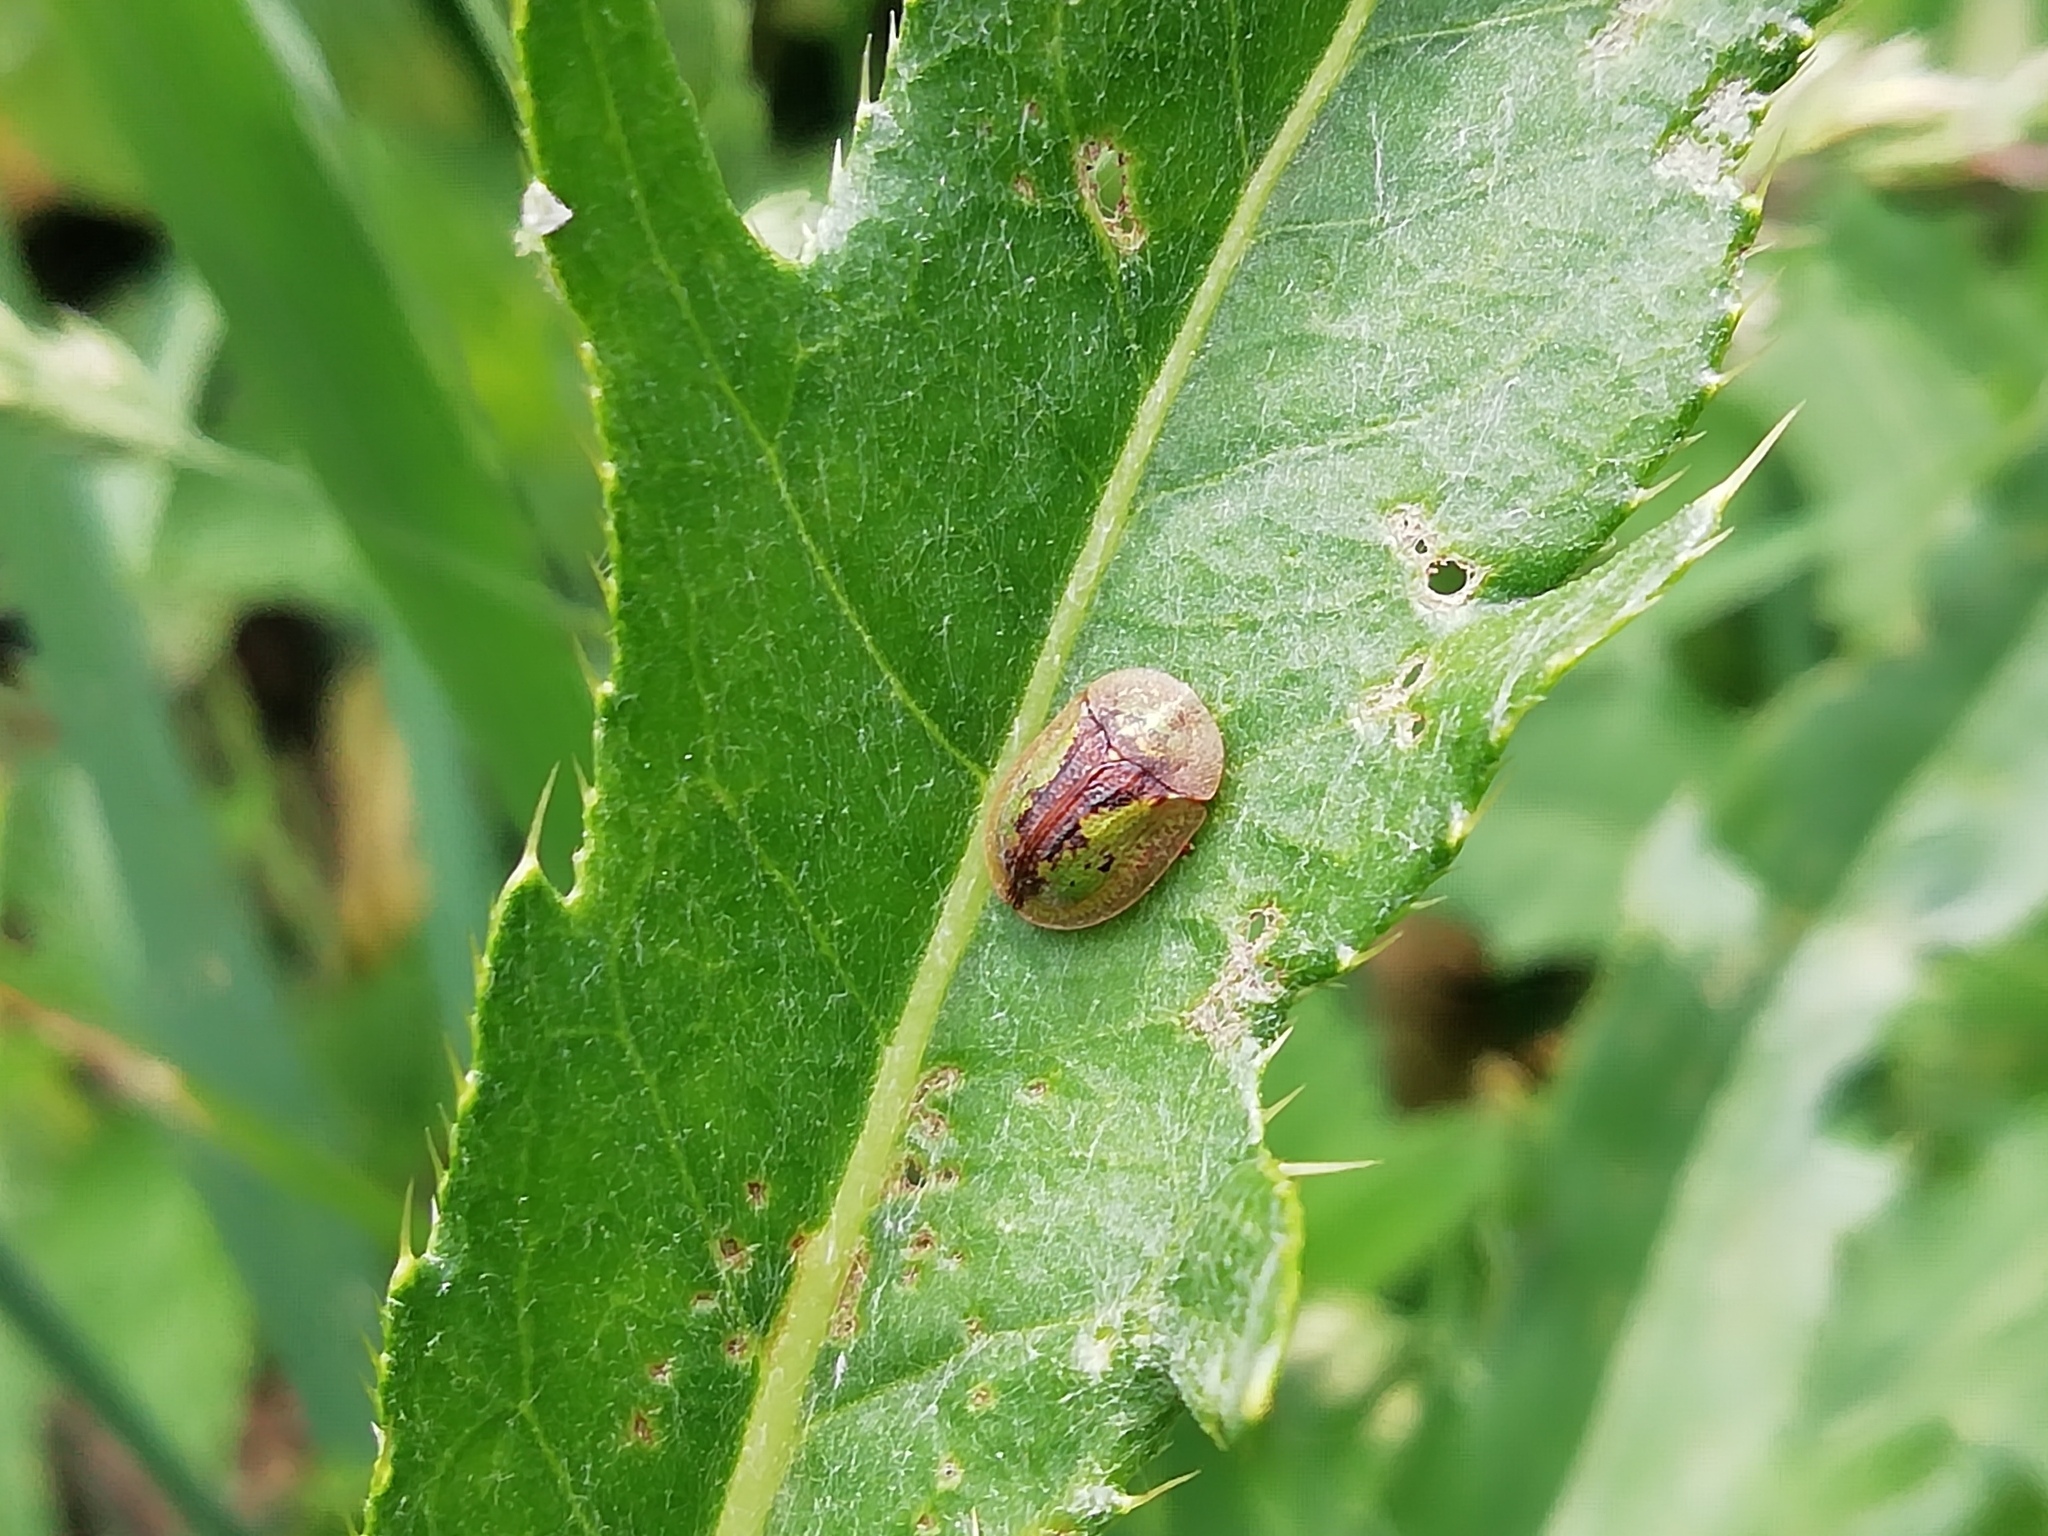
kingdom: Animalia
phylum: Arthropoda
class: Insecta
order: Coleoptera
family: Chrysomelidae
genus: Cassida
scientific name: Cassida vibex
